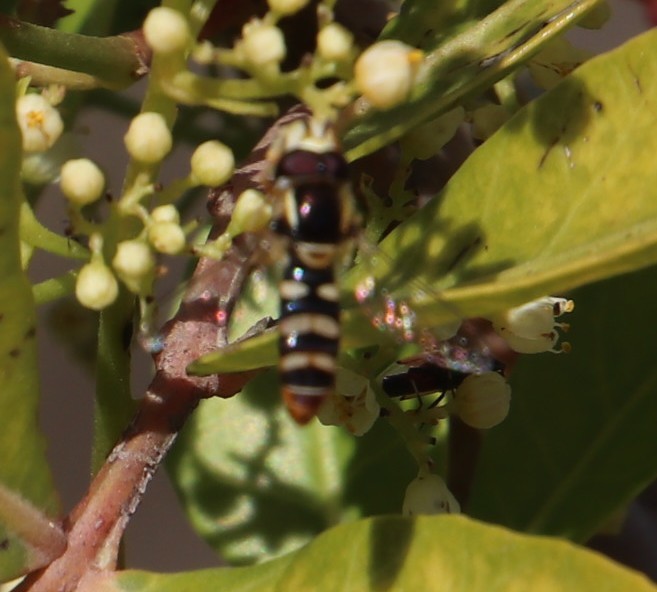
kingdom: Animalia
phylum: Arthropoda
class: Insecta
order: Diptera
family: Syrphidae
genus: Ischiodon
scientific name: Ischiodon aegyptius
